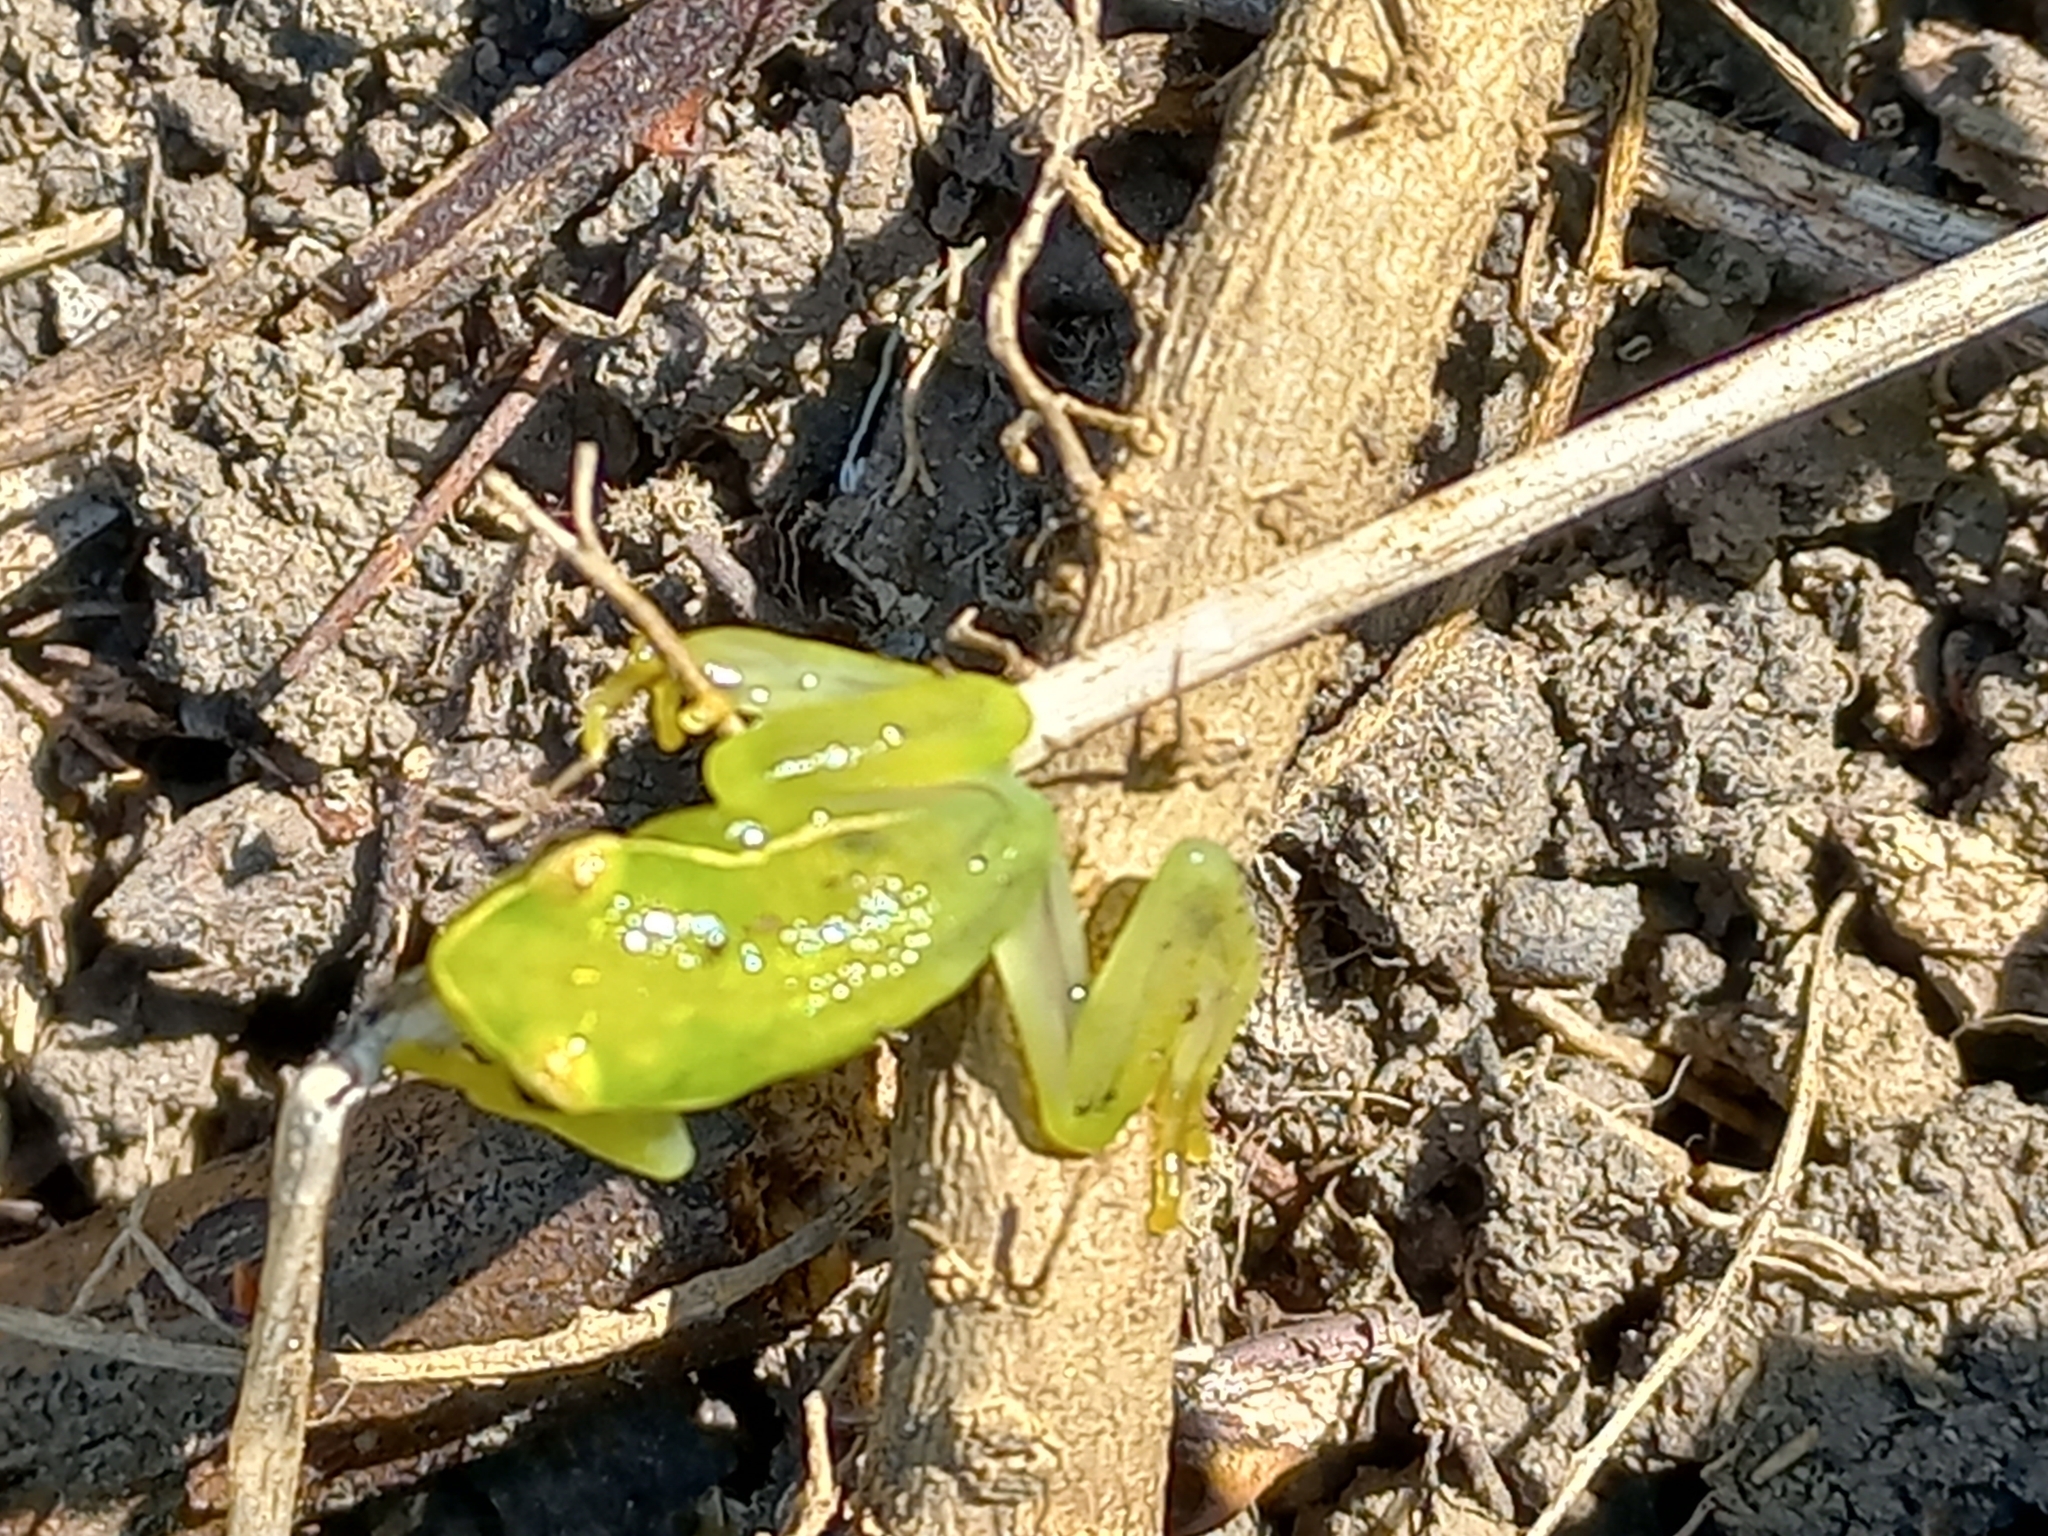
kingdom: Animalia
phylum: Chordata
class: Amphibia
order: Anura
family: Hyperoliidae
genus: Hyperolius
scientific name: Hyperolius pusillus
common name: Water lily reed frog
